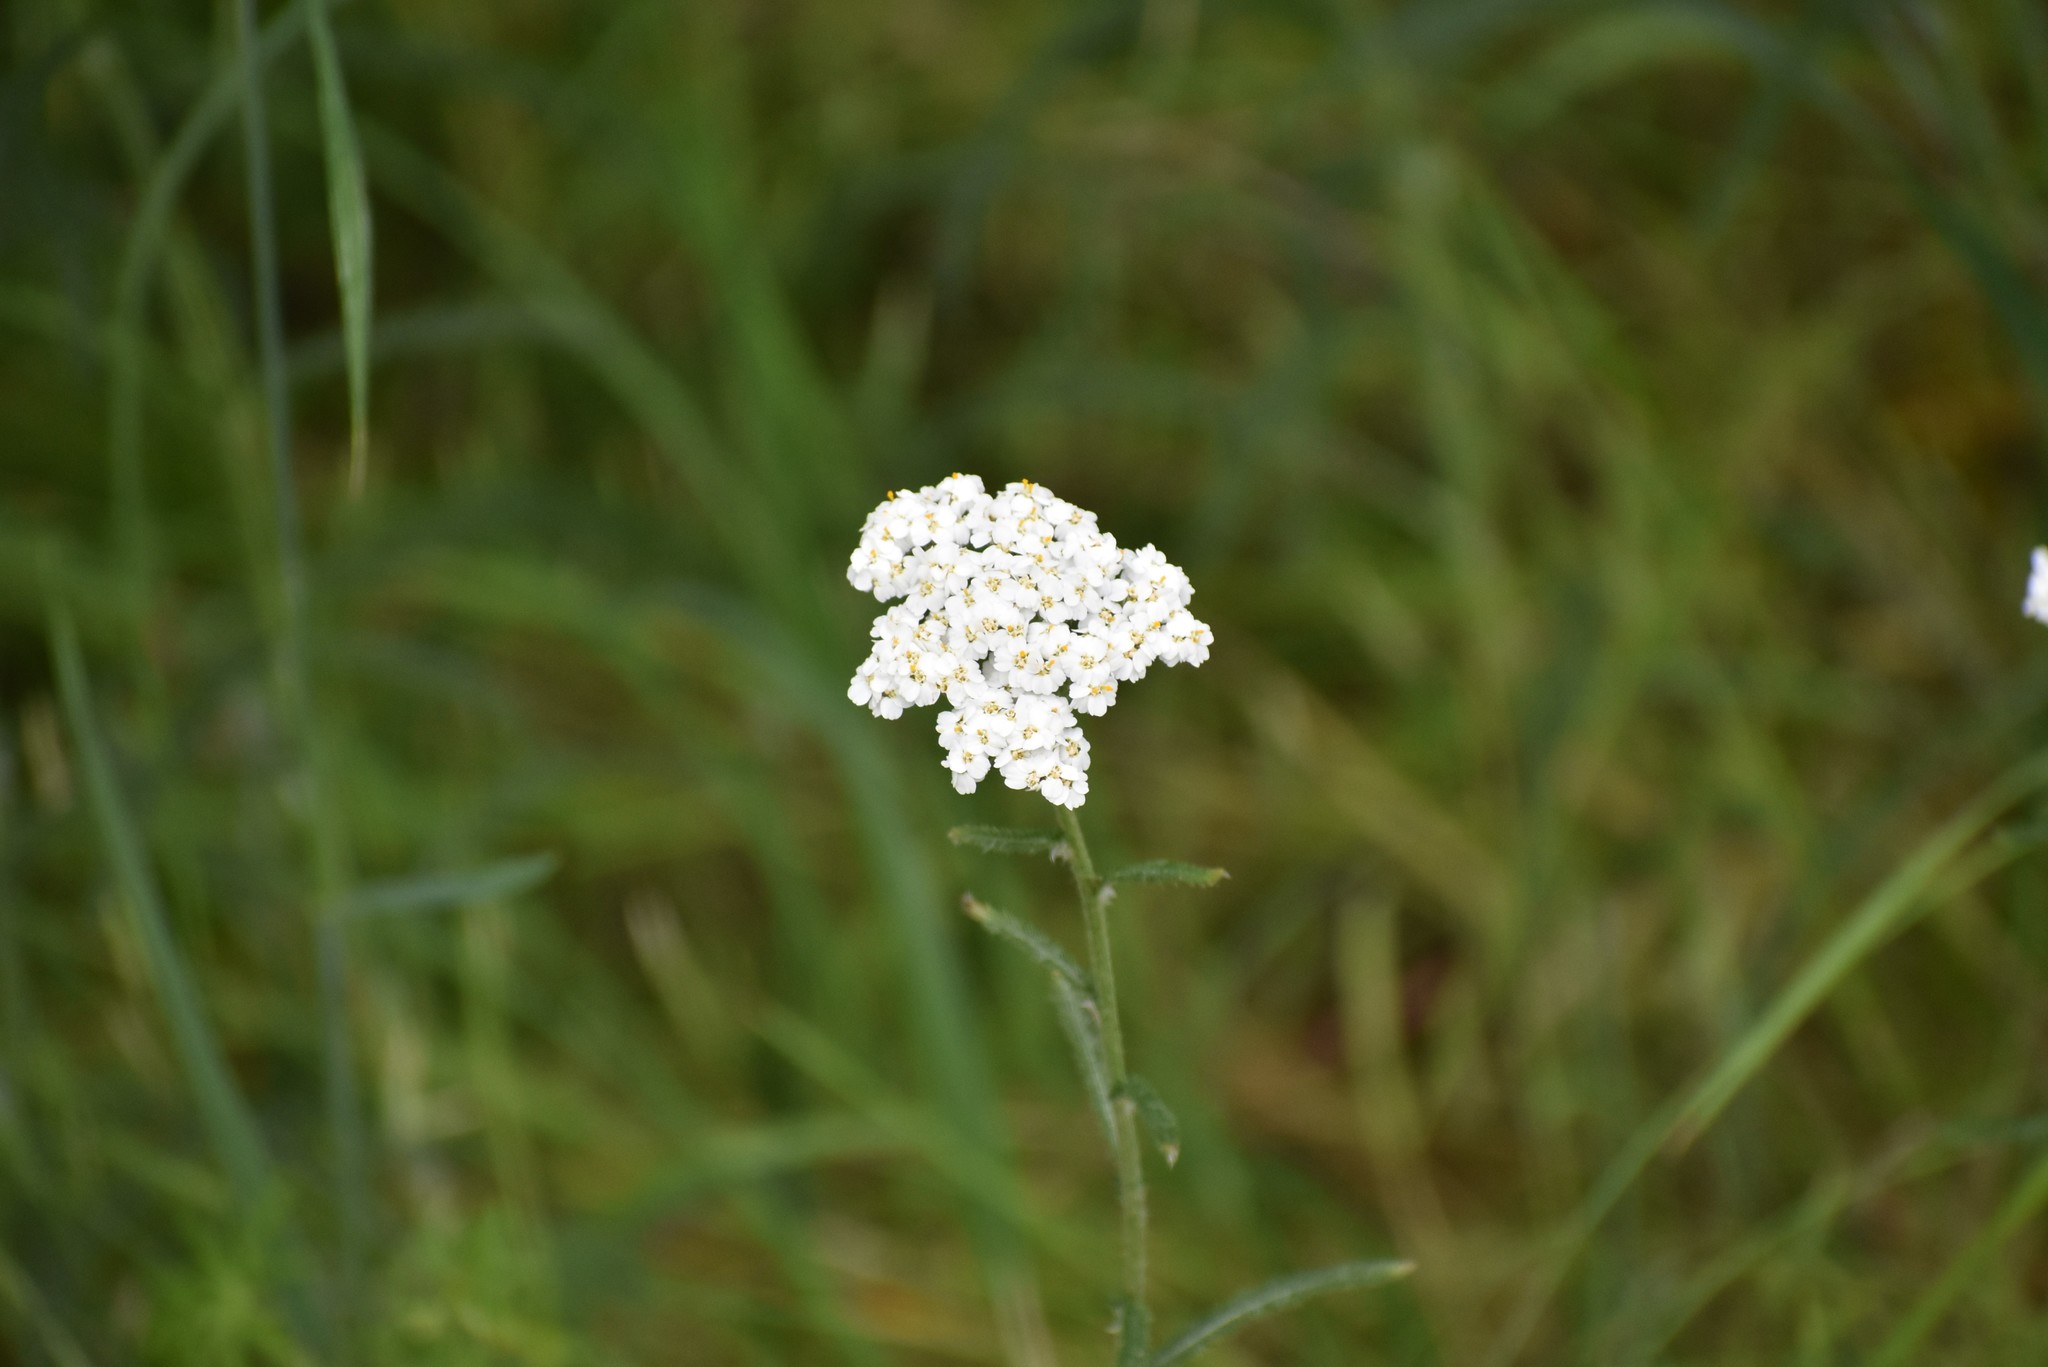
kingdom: Plantae
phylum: Tracheophyta
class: Magnoliopsida
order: Asterales
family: Asteraceae
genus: Achillea
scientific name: Achillea millefolium
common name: Yarrow
